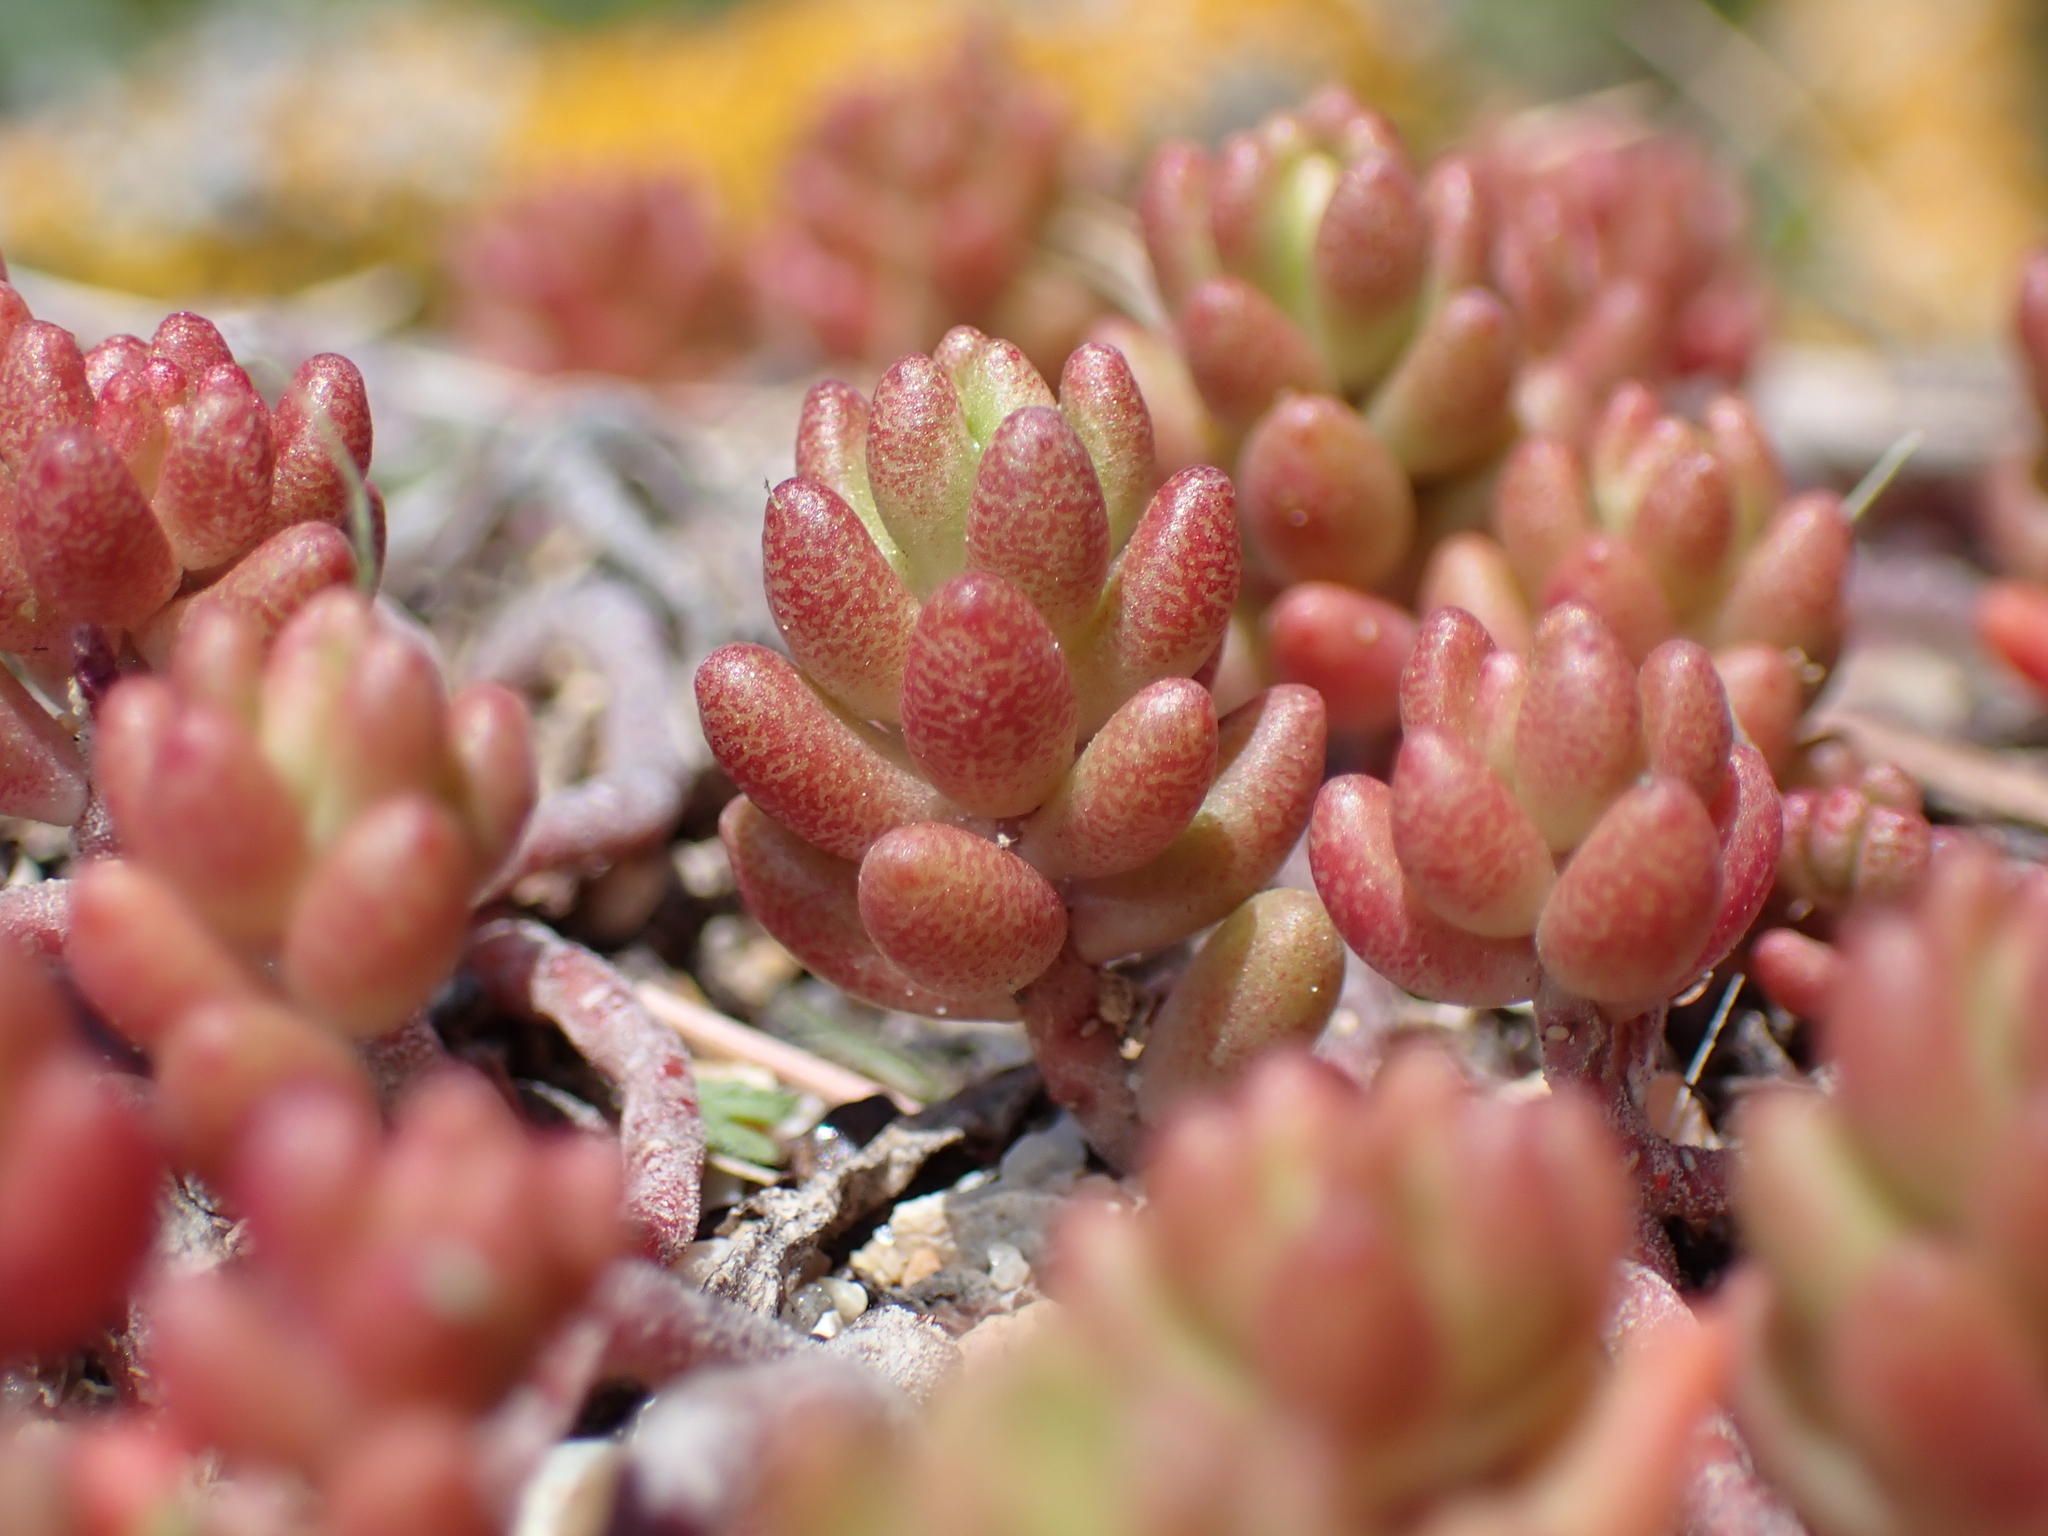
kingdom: Plantae
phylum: Tracheophyta
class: Magnoliopsida
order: Saxifragales
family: Crassulaceae
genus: Sedum
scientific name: Sedum album
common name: White stonecrop
